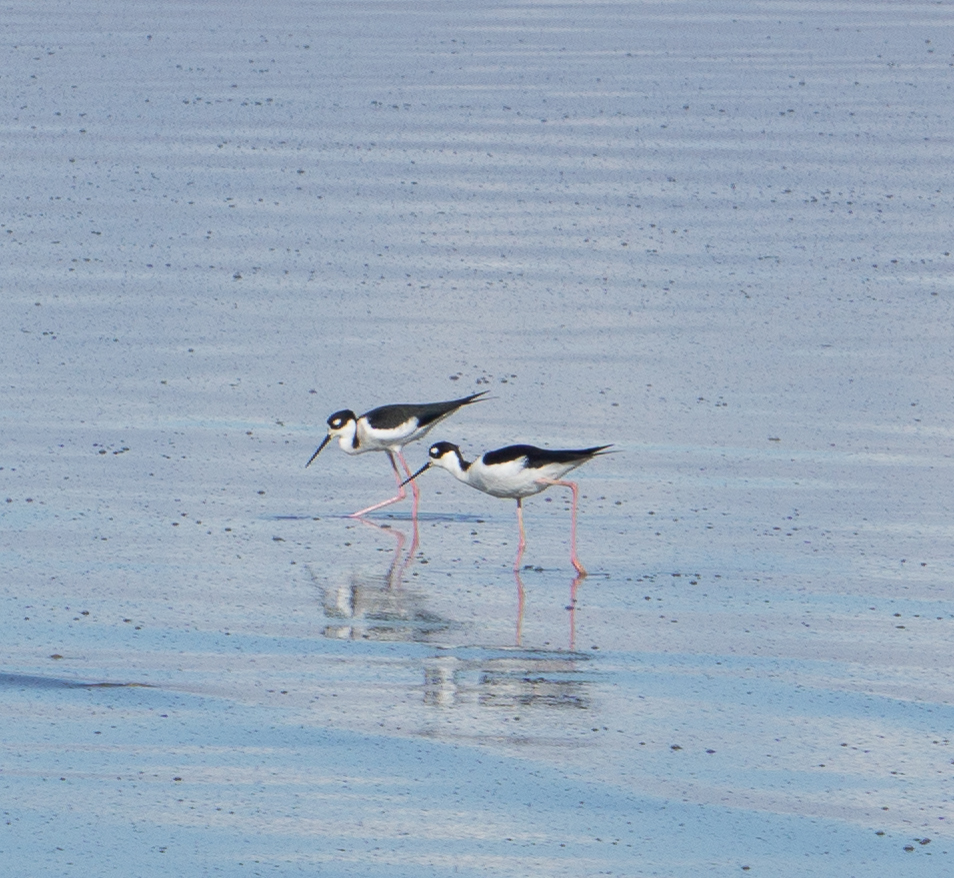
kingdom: Animalia
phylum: Chordata
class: Aves
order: Charadriiformes
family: Recurvirostridae
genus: Himantopus
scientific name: Himantopus mexicanus
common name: Black-necked stilt
